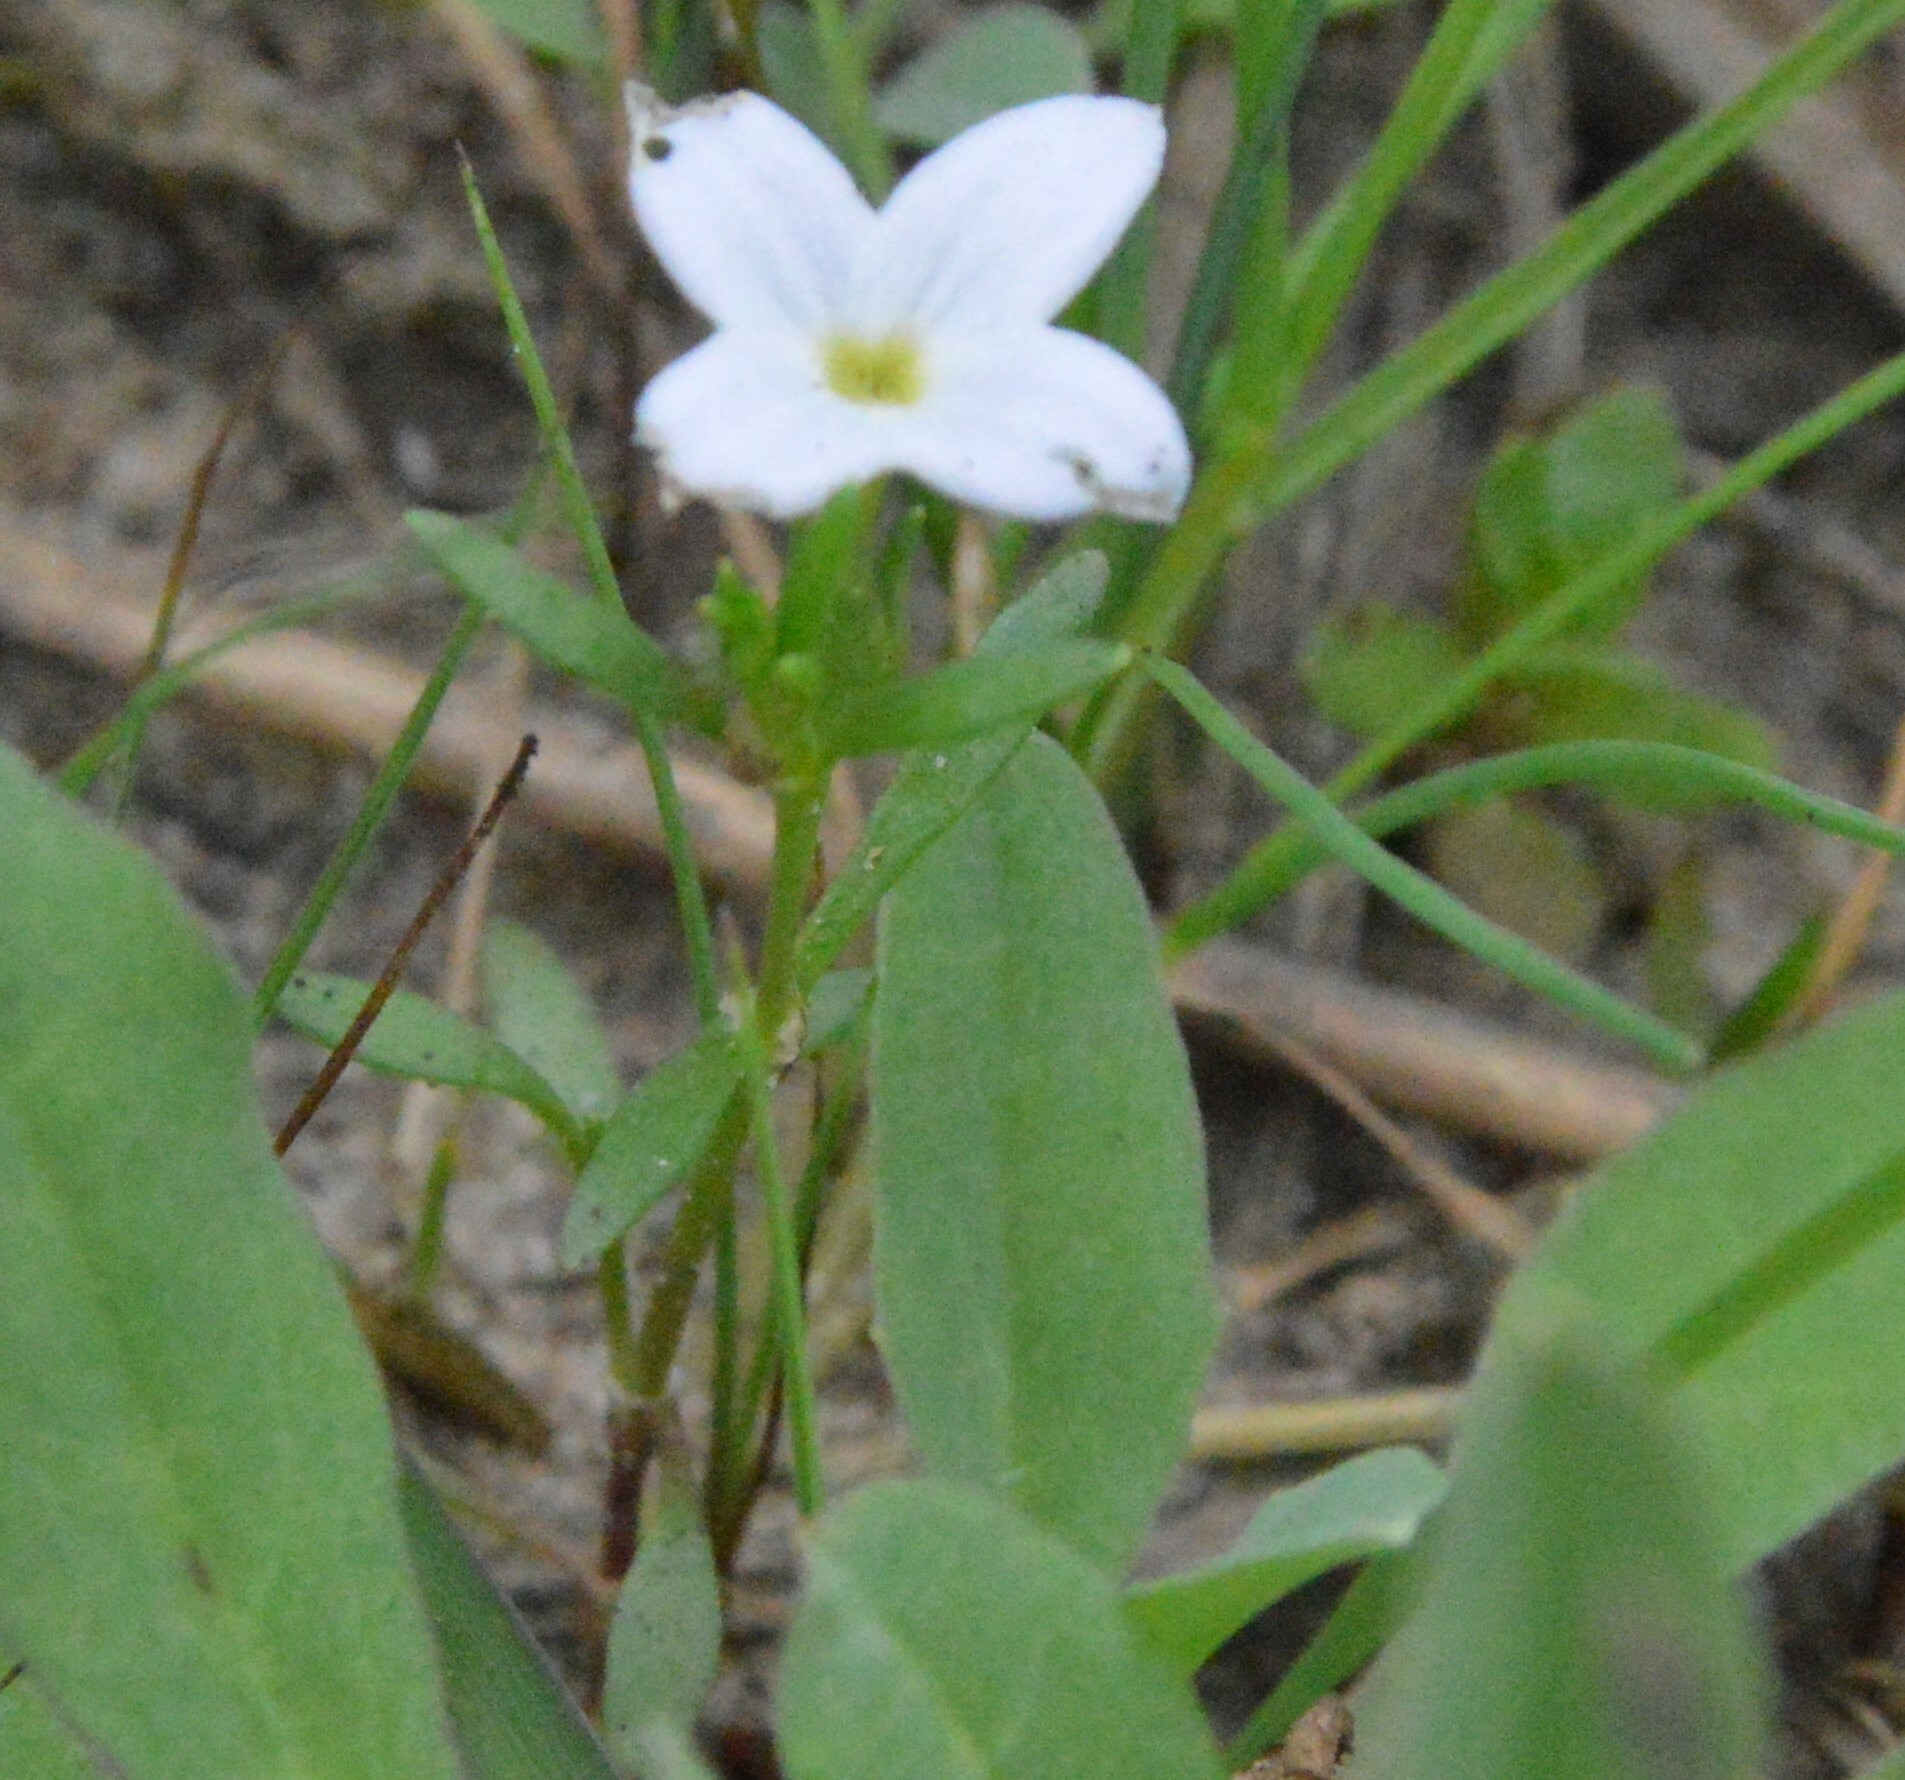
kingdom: Plantae
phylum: Tracheophyta
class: Magnoliopsida
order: Gentianales
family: Rubiaceae
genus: Houstonia
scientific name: Houstonia rosea
